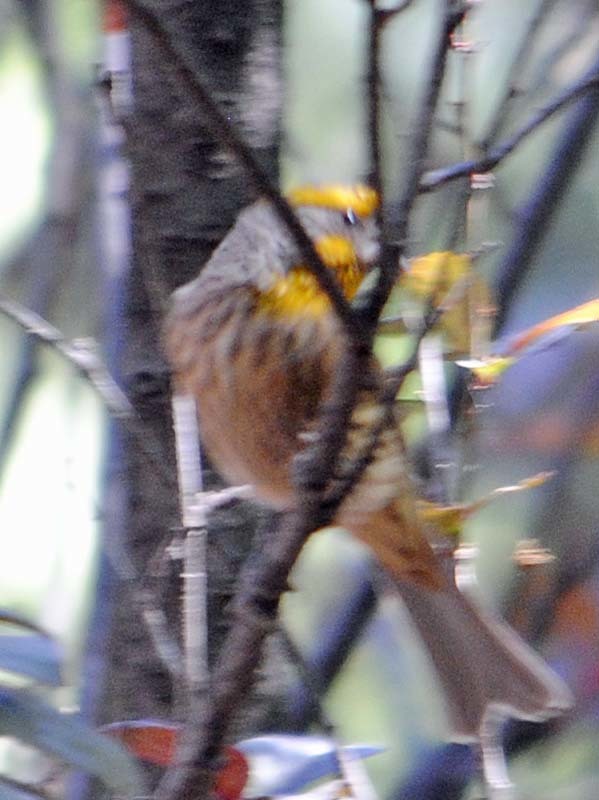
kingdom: Animalia
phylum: Chordata
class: Aves
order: Passeriformes
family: Fringillidae
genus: Haemorhous
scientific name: Haemorhous mexicanus
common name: House finch
